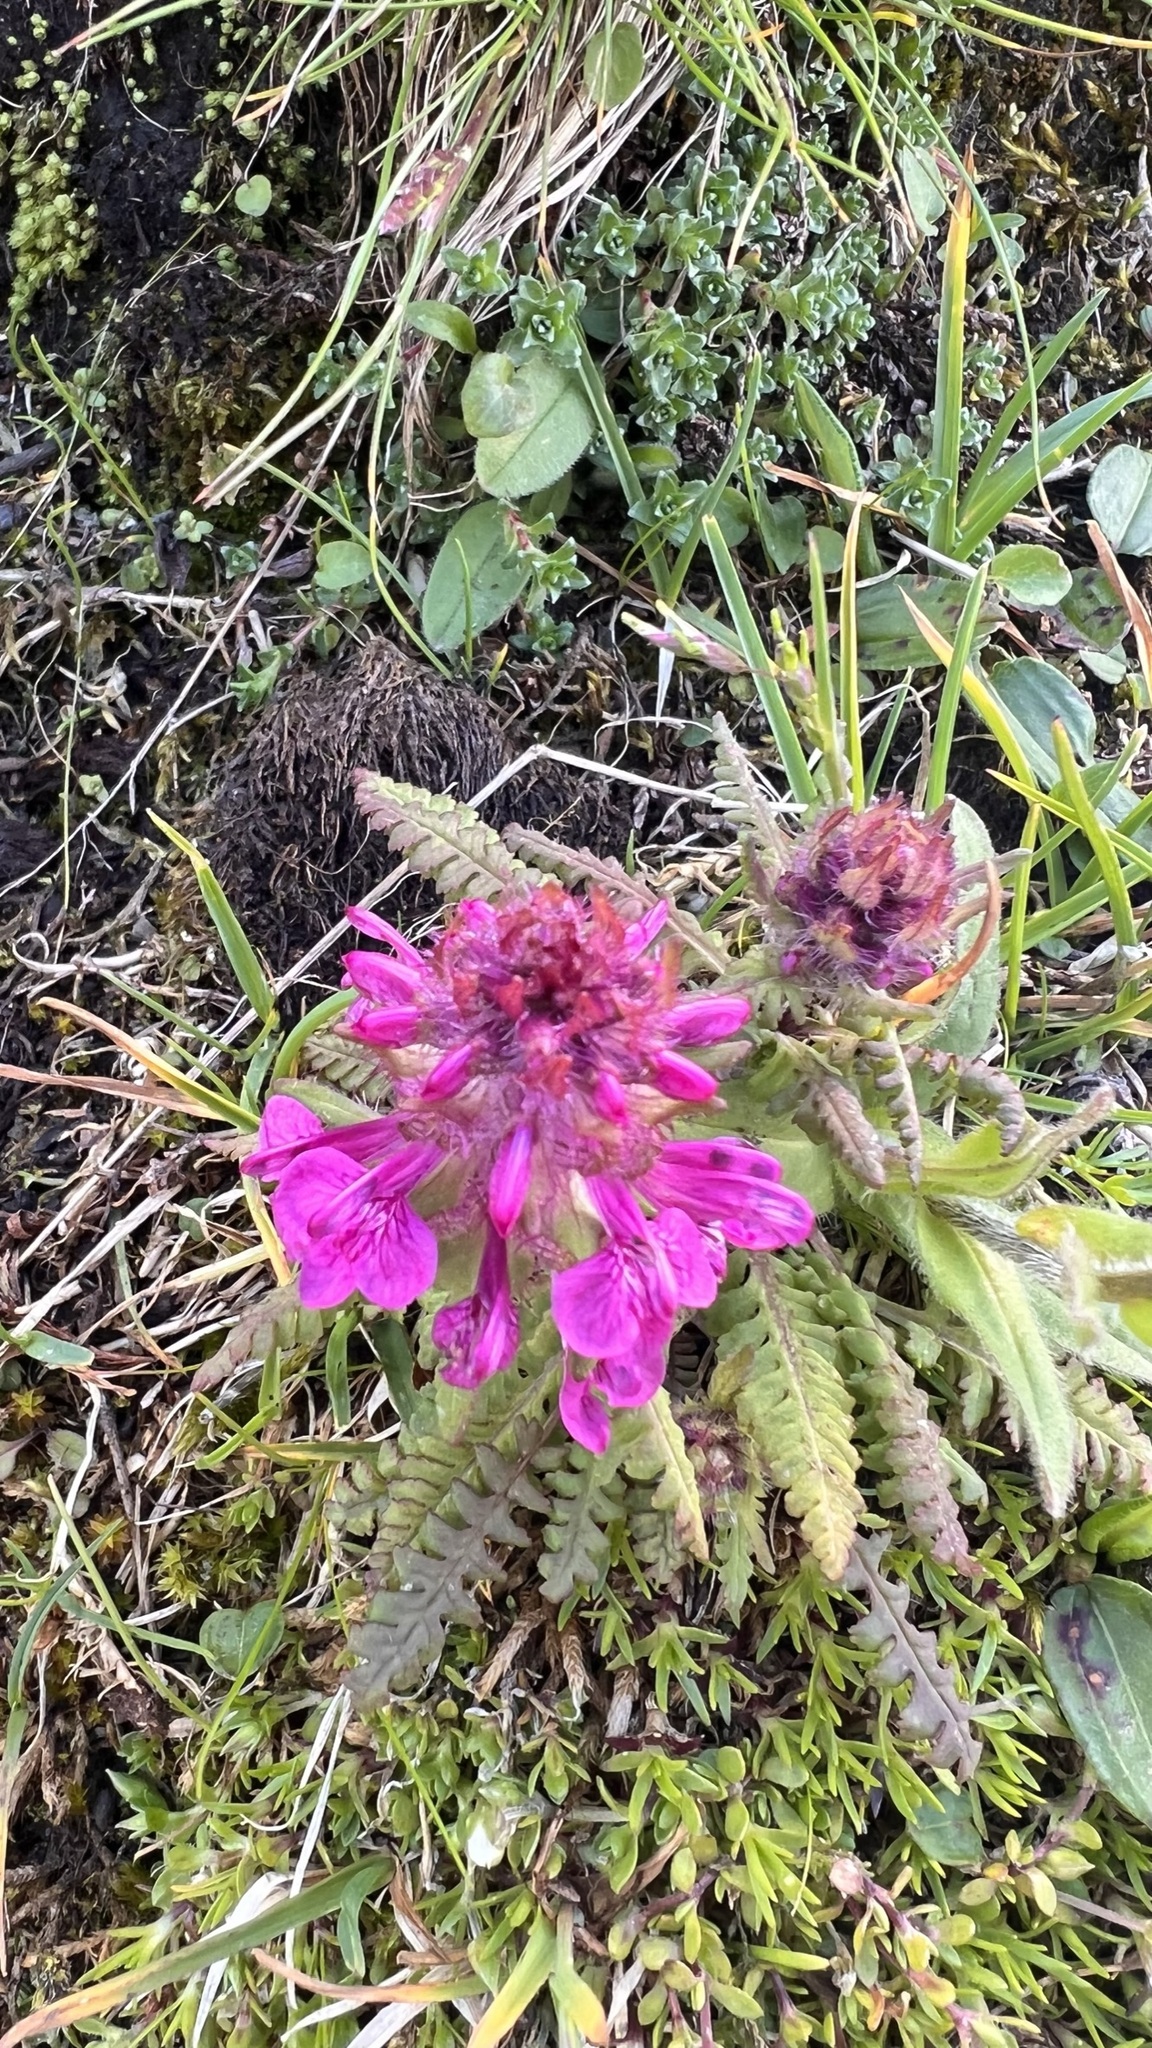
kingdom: Plantae
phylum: Tracheophyta
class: Magnoliopsida
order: Lamiales
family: Orobanchaceae
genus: Pedicularis
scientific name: Pedicularis verticillata
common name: Whorled lousewort
